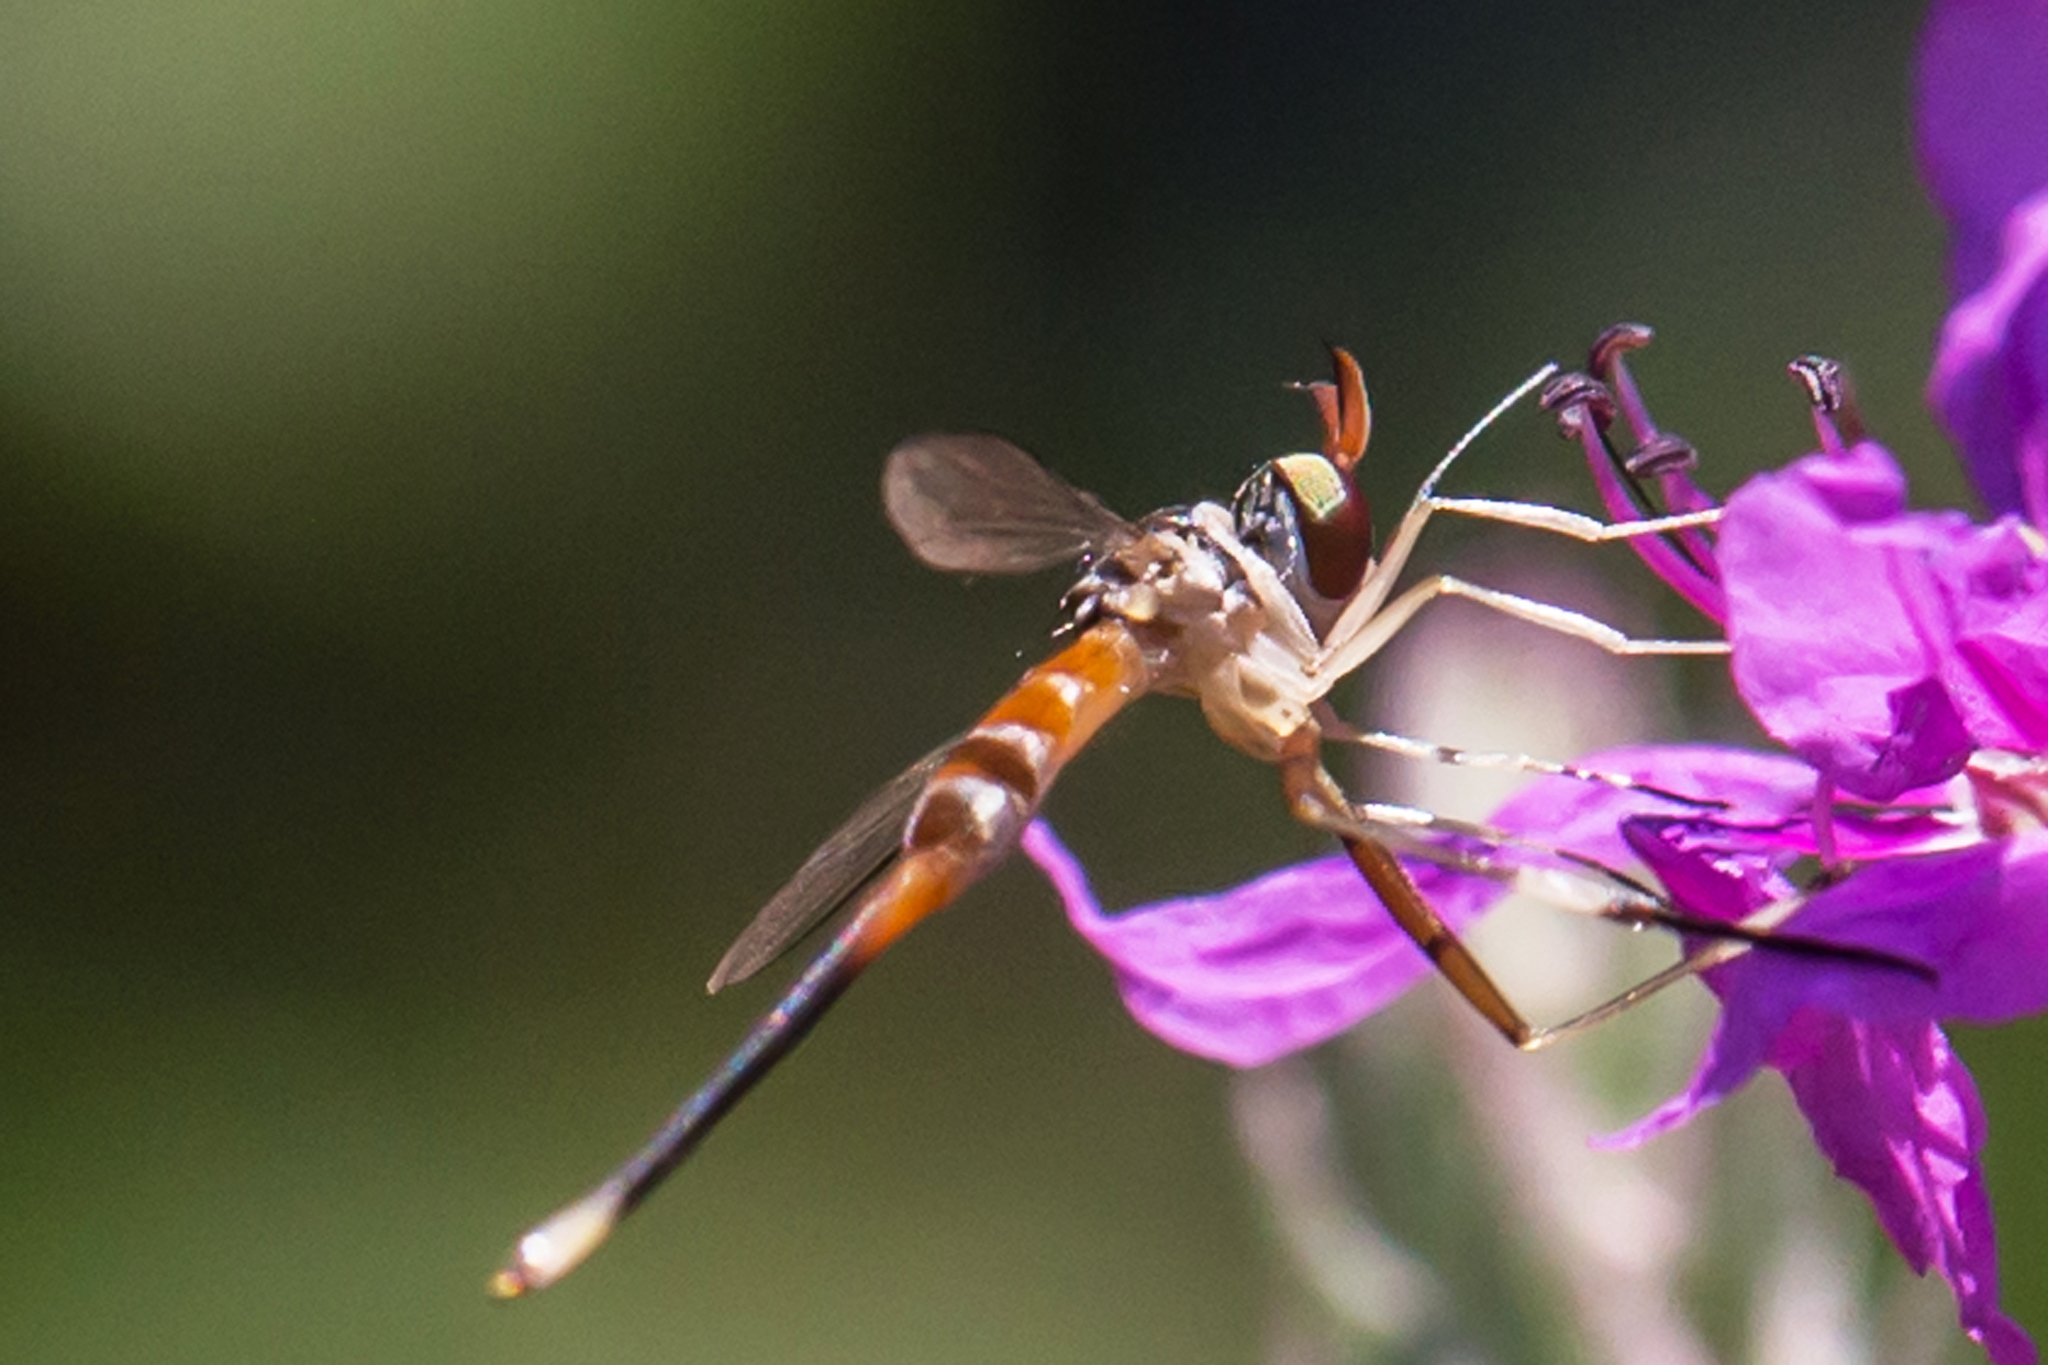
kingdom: Animalia
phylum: Arthropoda
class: Insecta
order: Diptera
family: Conopidae
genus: Stylogaster
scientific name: Stylogaster neglecta
